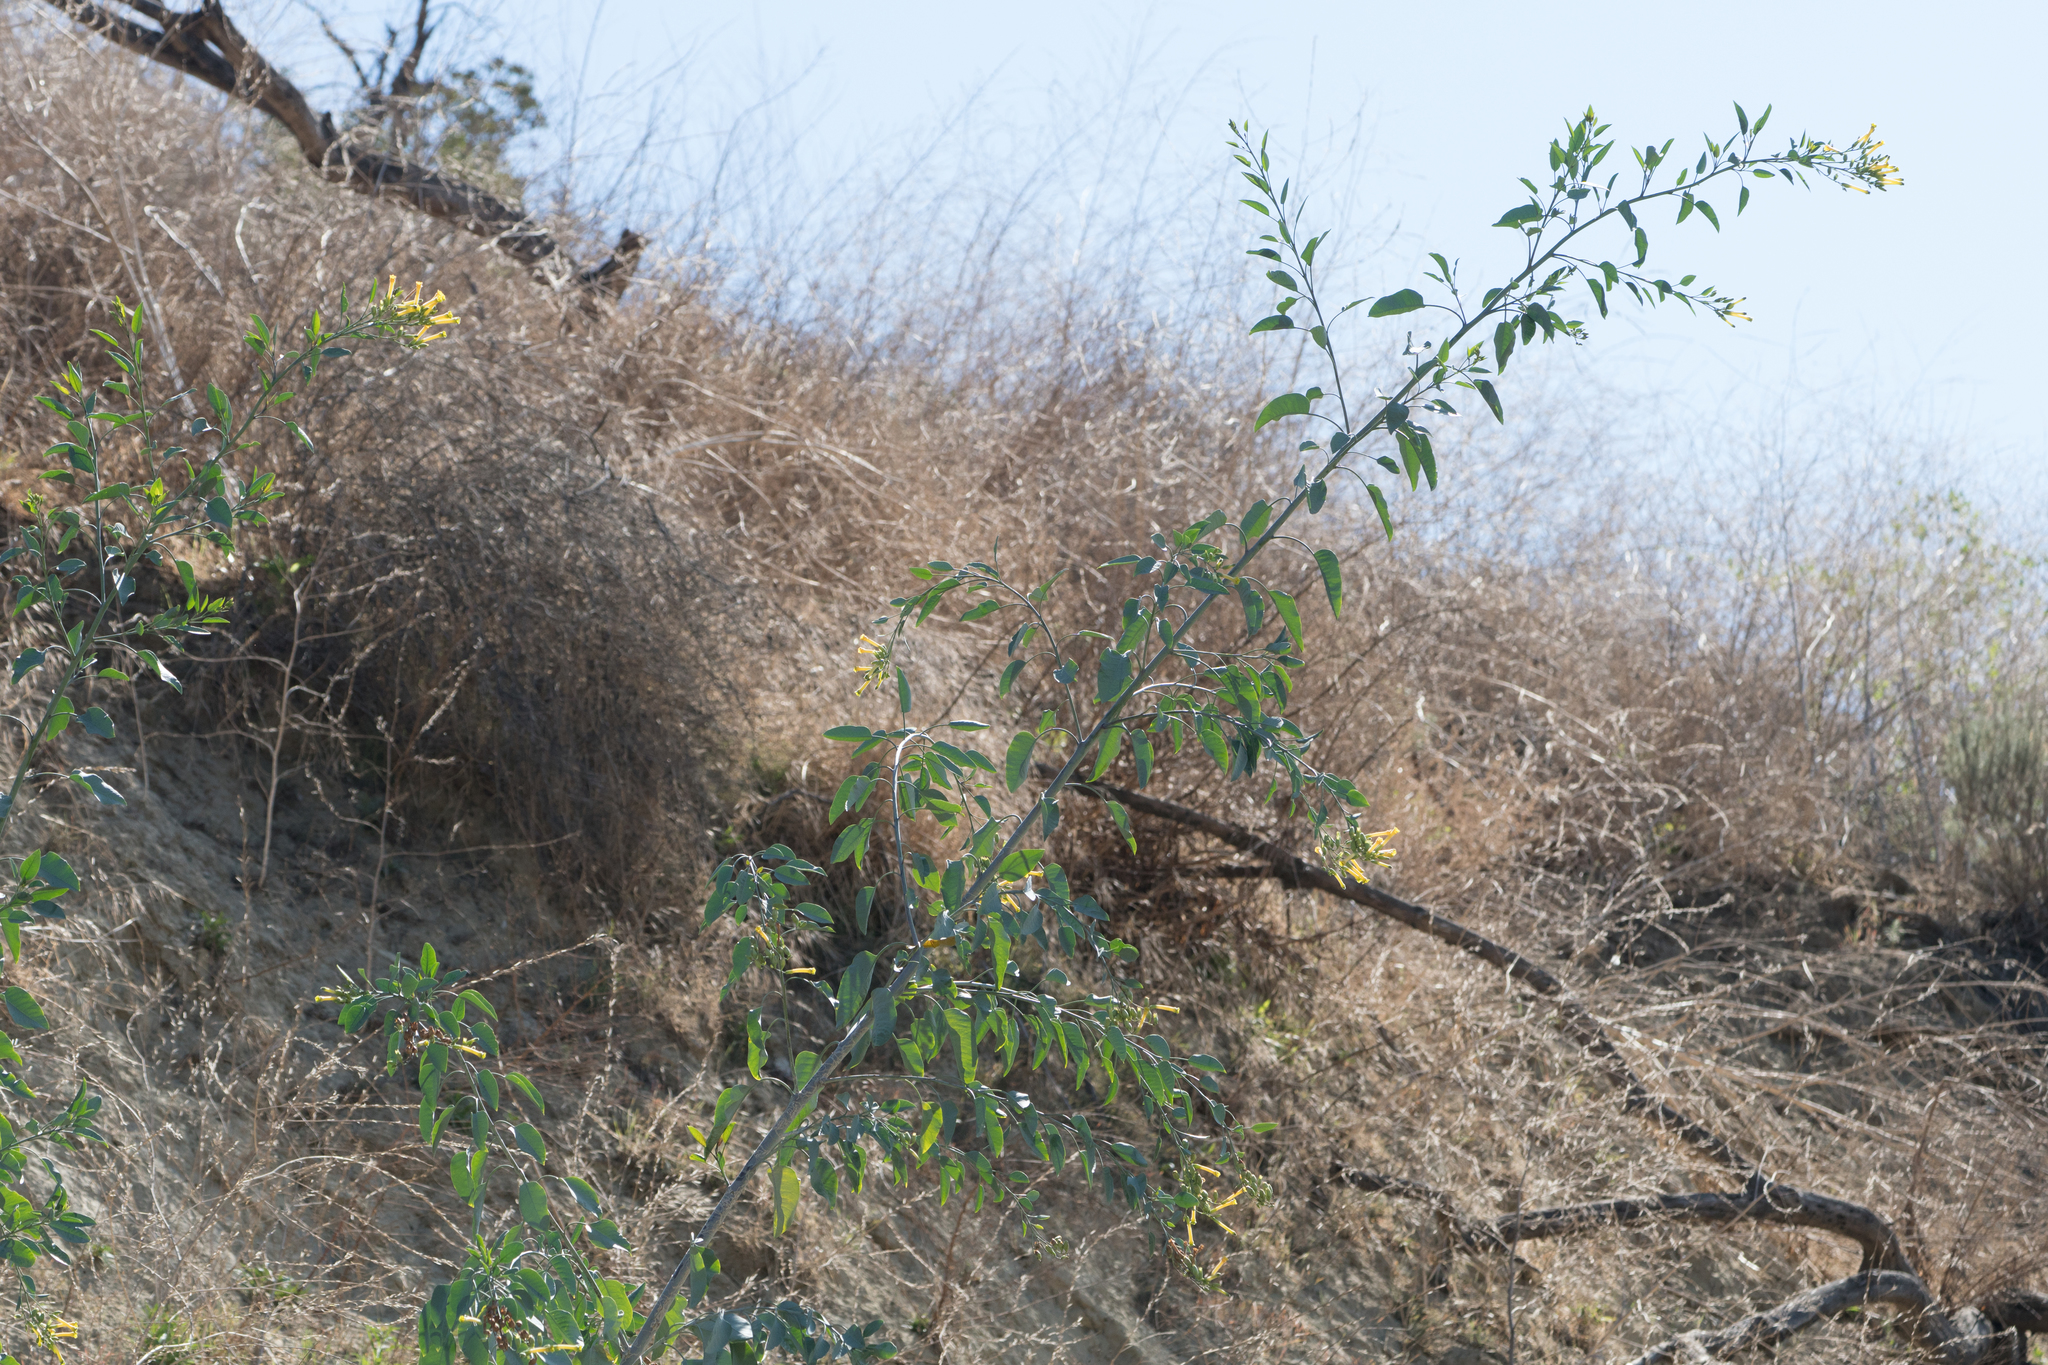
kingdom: Plantae
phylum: Tracheophyta
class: Magnoliopsida
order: Solanales
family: Solanaceae
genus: Nicotiana
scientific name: Nicotiana glauca
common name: Tree tobacco
